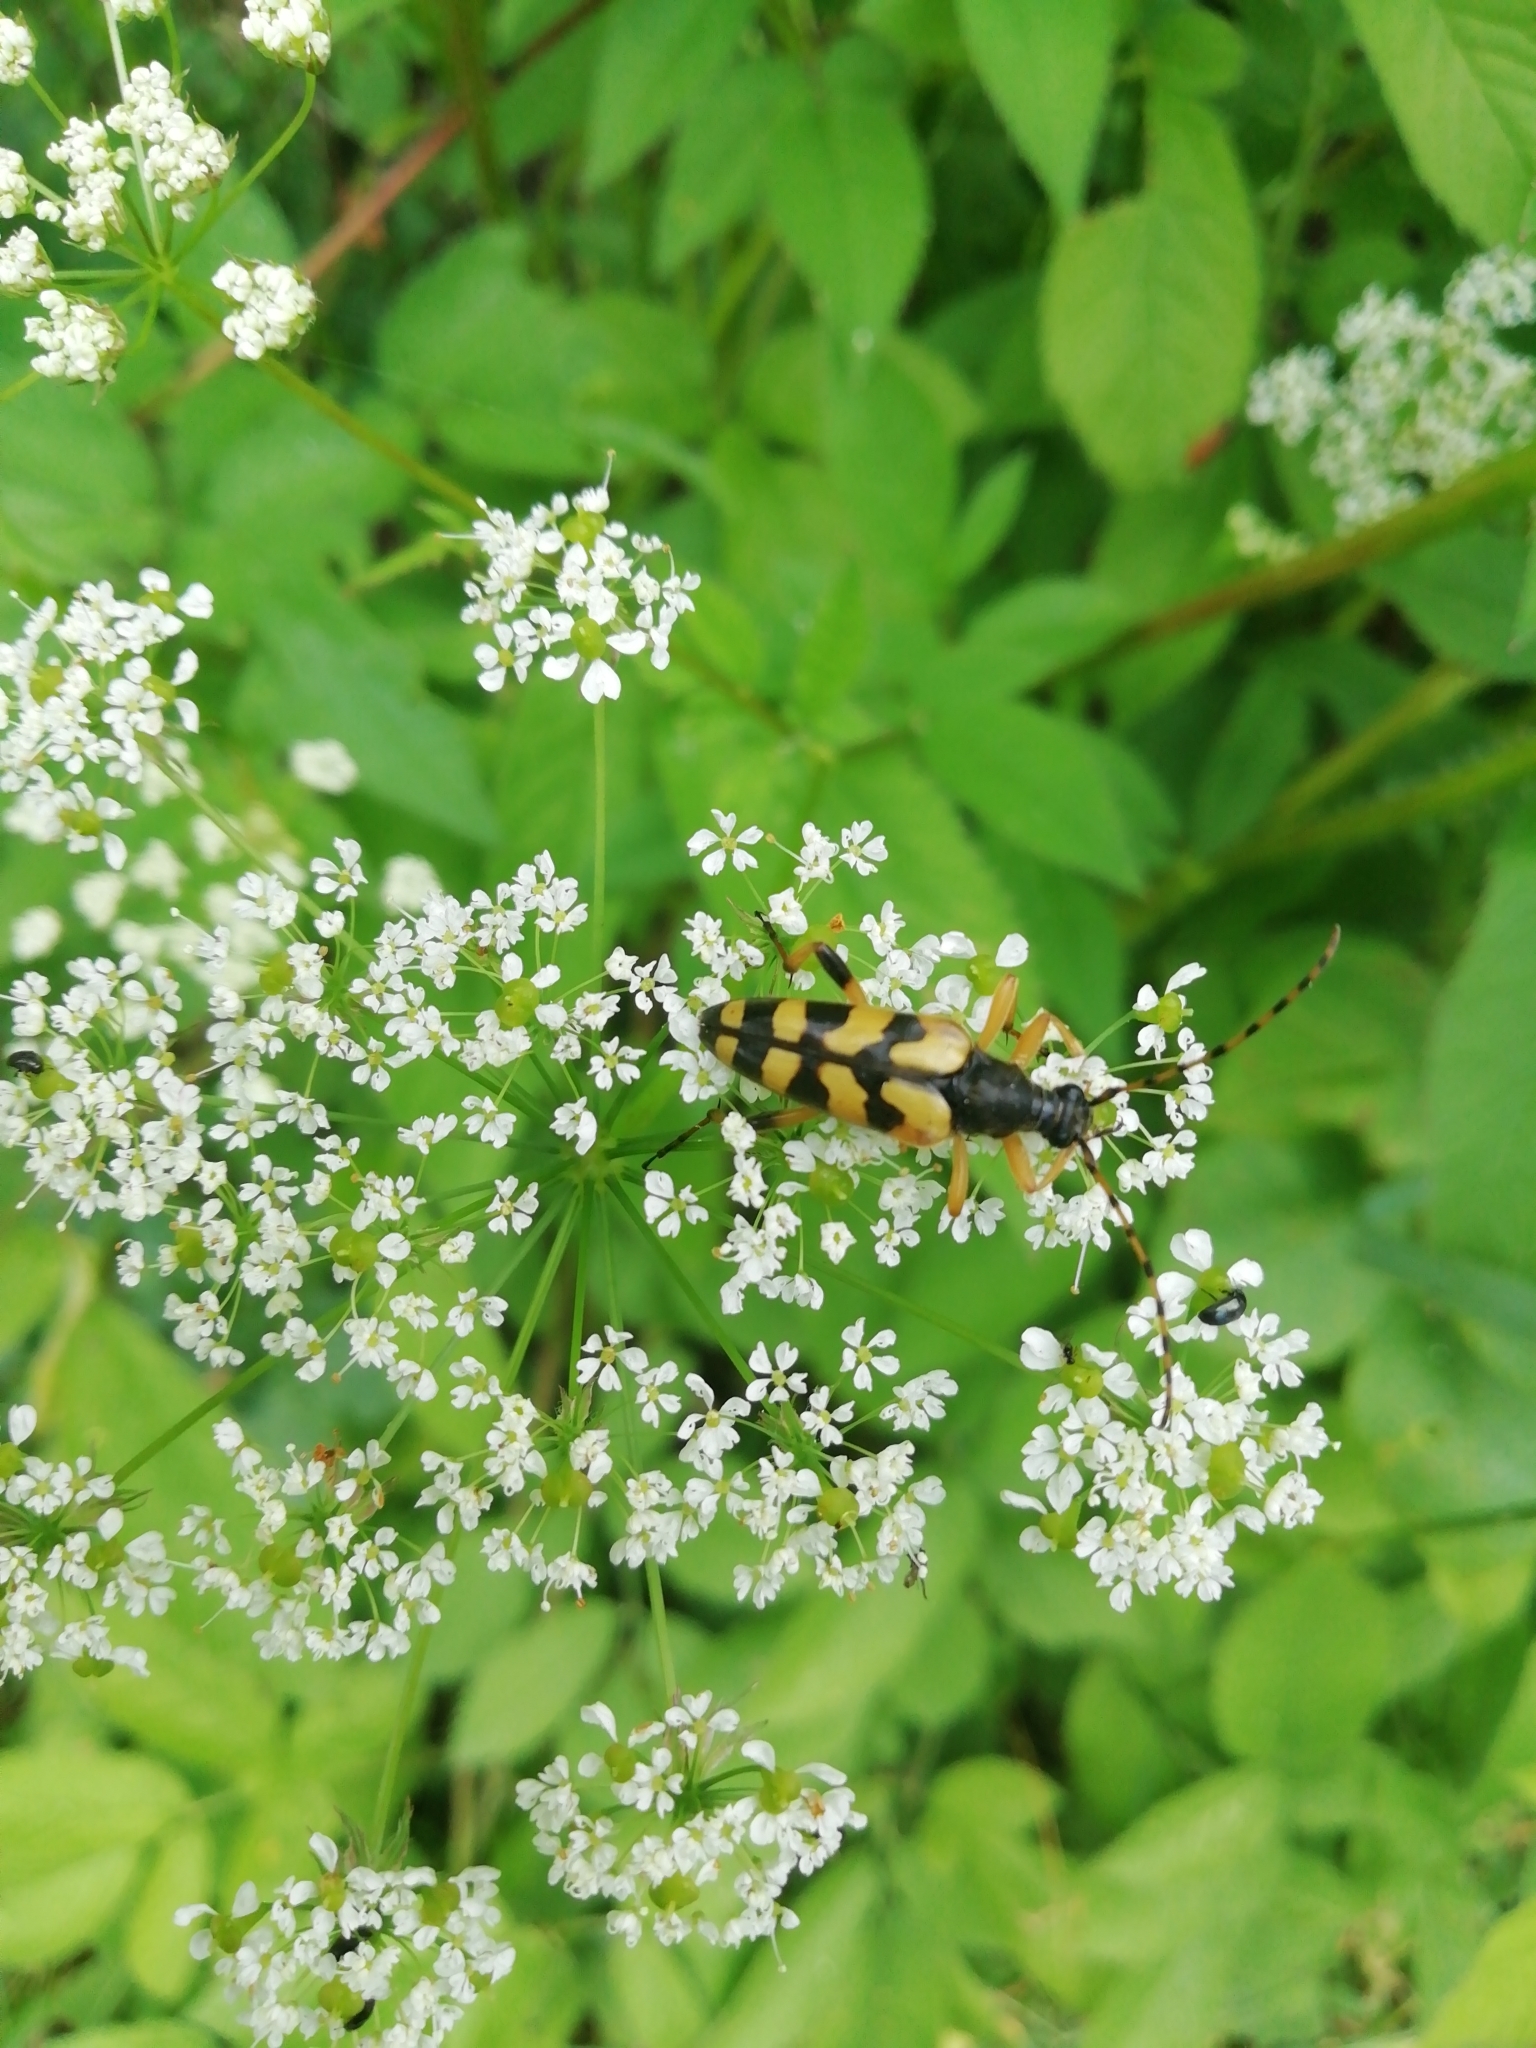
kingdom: Animalia
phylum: Arthropoda
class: Insecta
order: Coleoptera
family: Cerambycidae
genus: Rutpela
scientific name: Rutpela maculata
